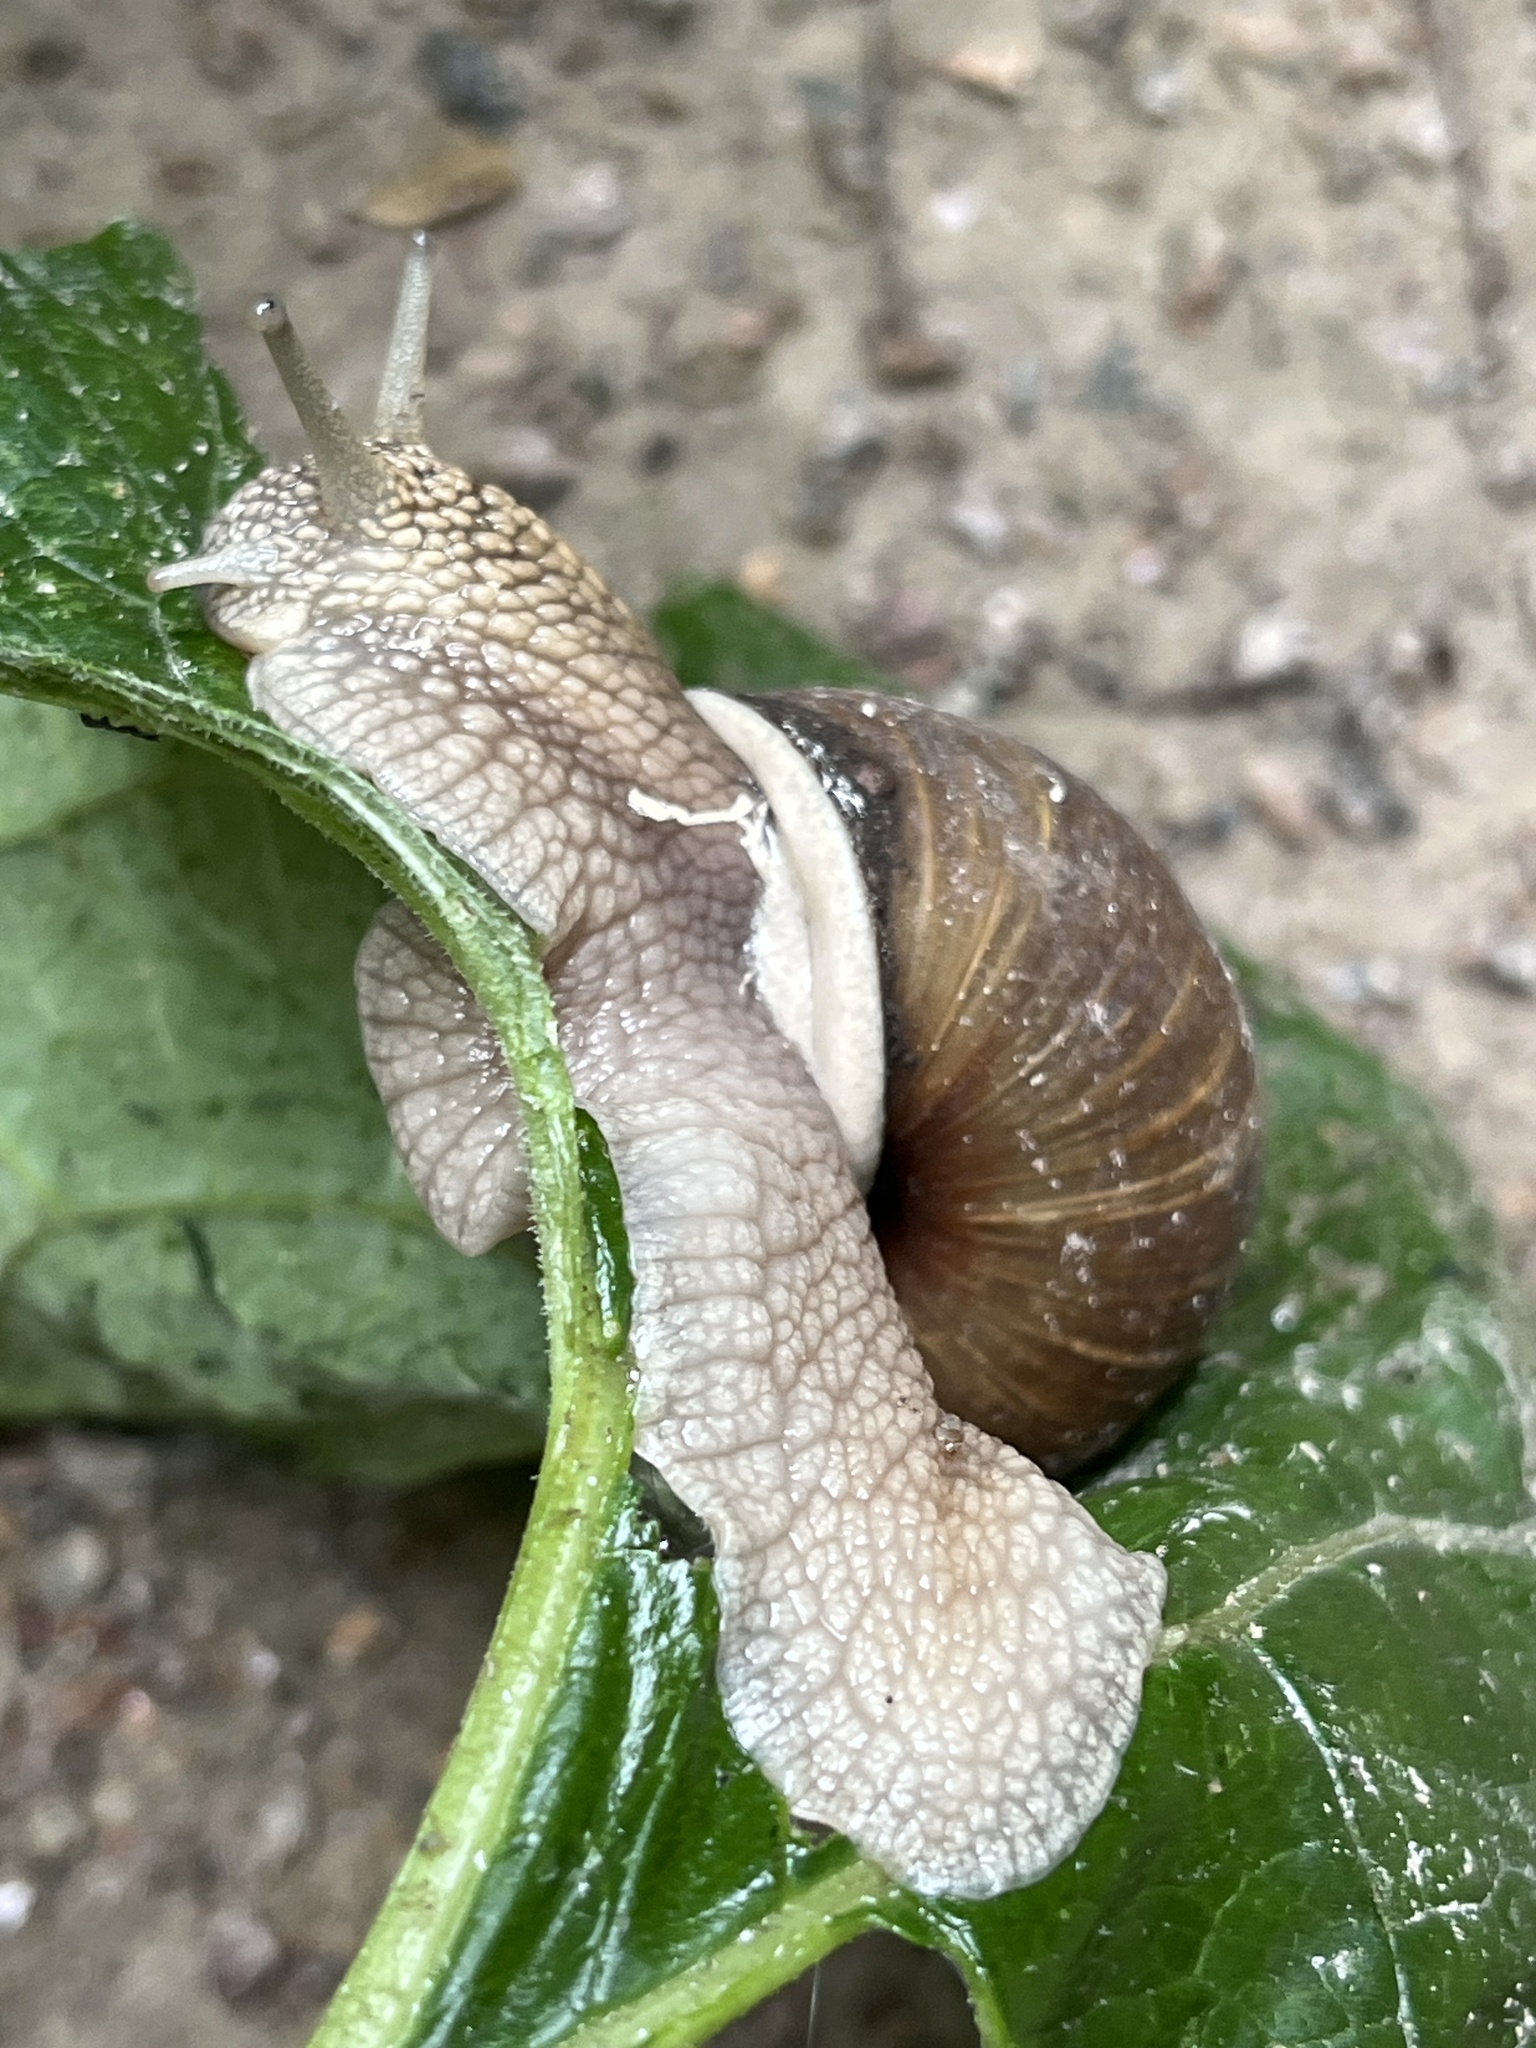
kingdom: Animalia
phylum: Mollusca
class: Gastropoda
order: Stylommatophora
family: Helicidae
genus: Helix
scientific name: Helix pomatia
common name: Roman snail
